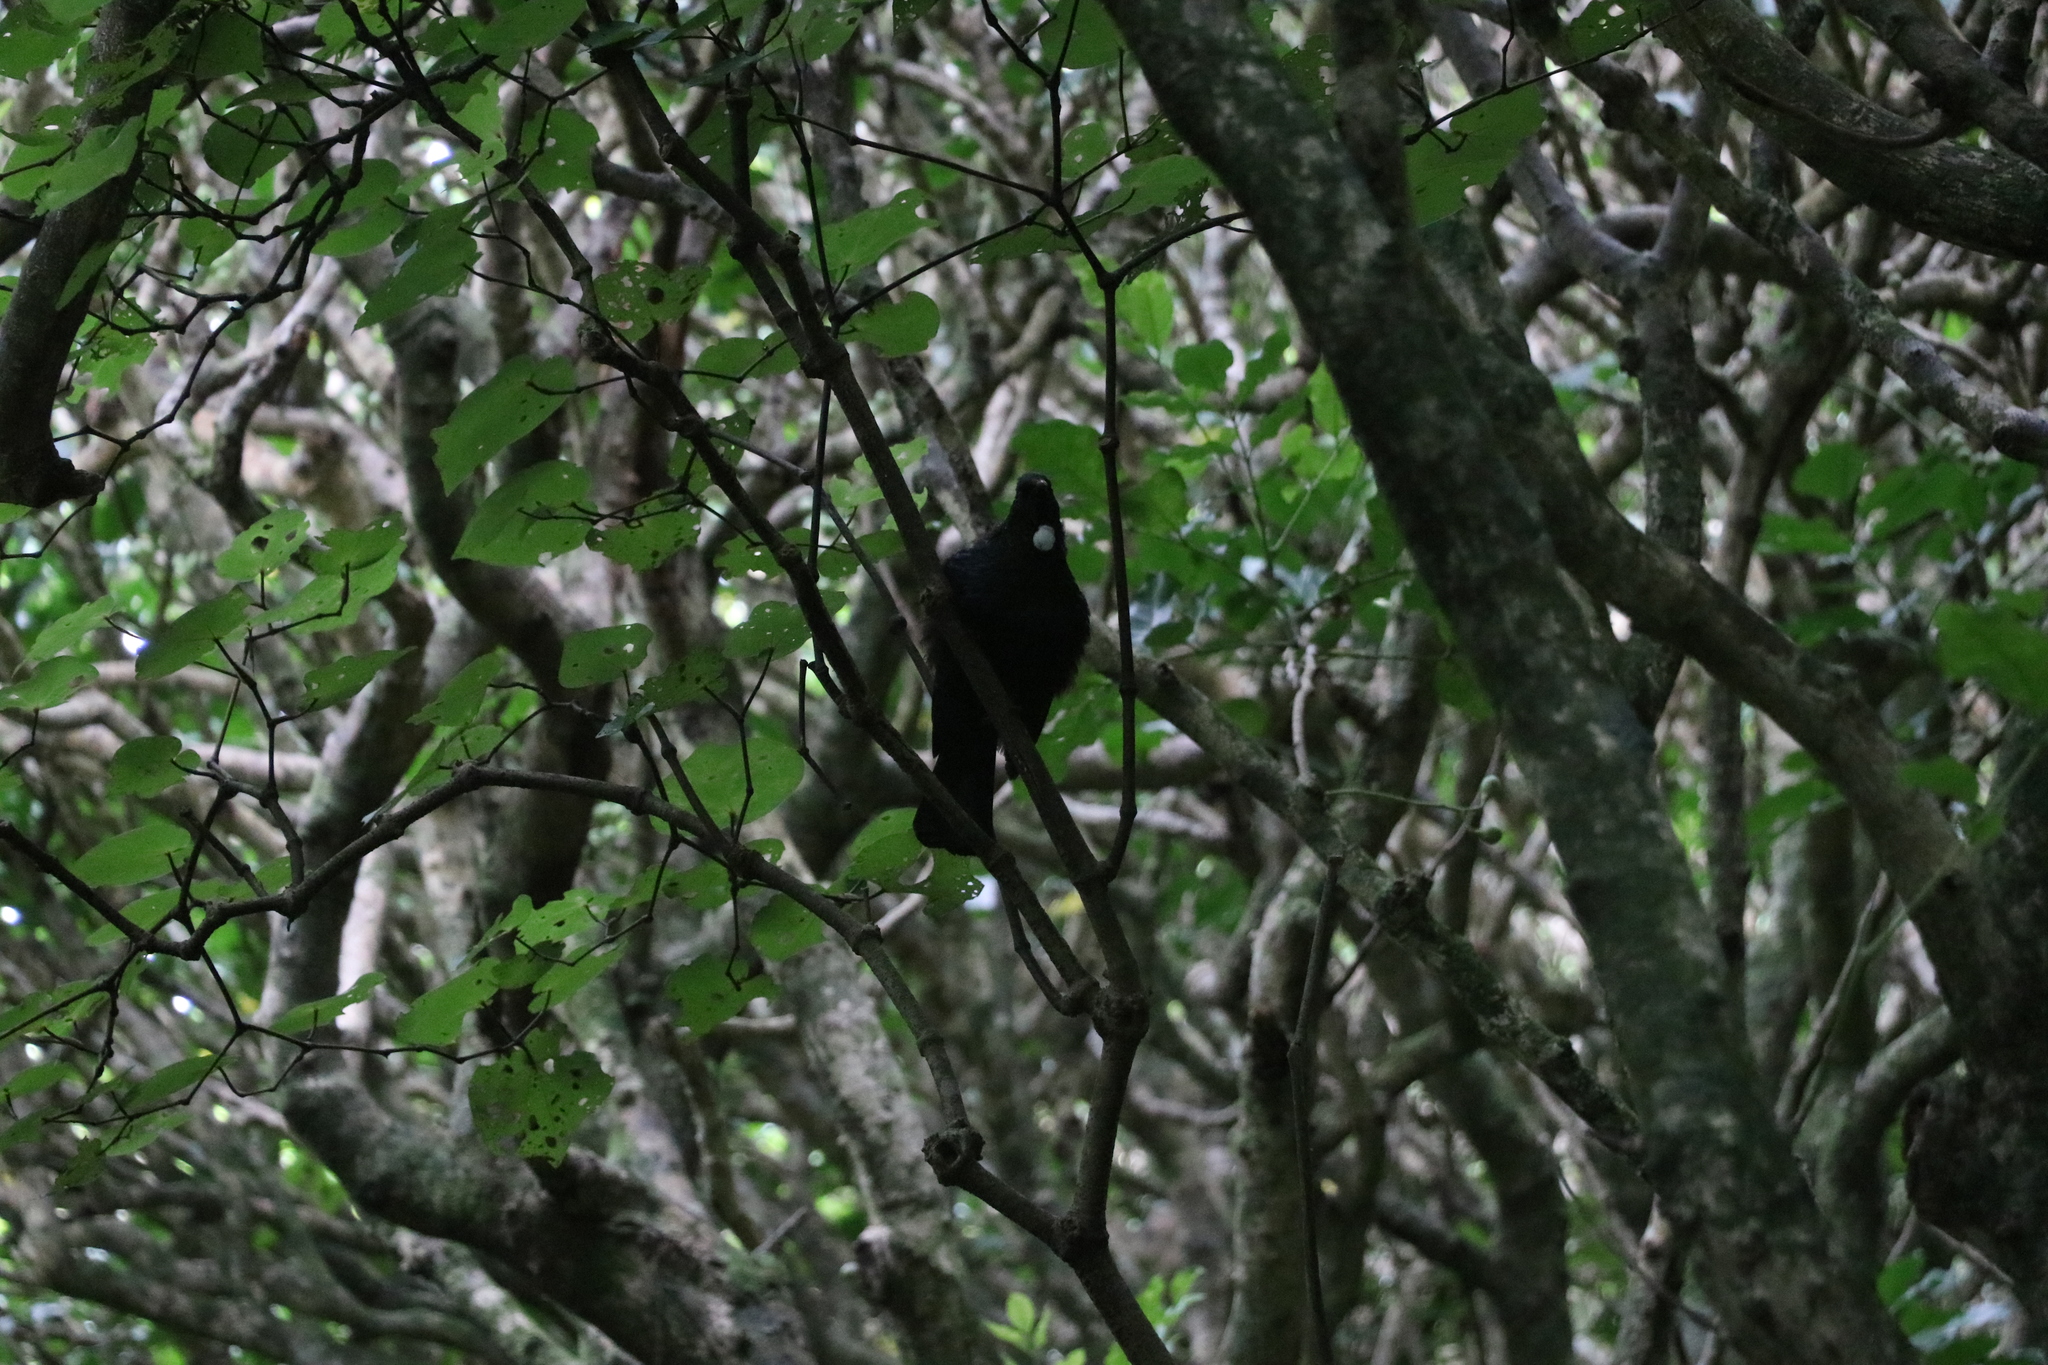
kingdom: Animalia
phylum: Chordata
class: Aves
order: Passeriformes
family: Meliphagidae
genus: Prosthemadera
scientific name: Prosthemadera novaeseelandiae
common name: Tui
